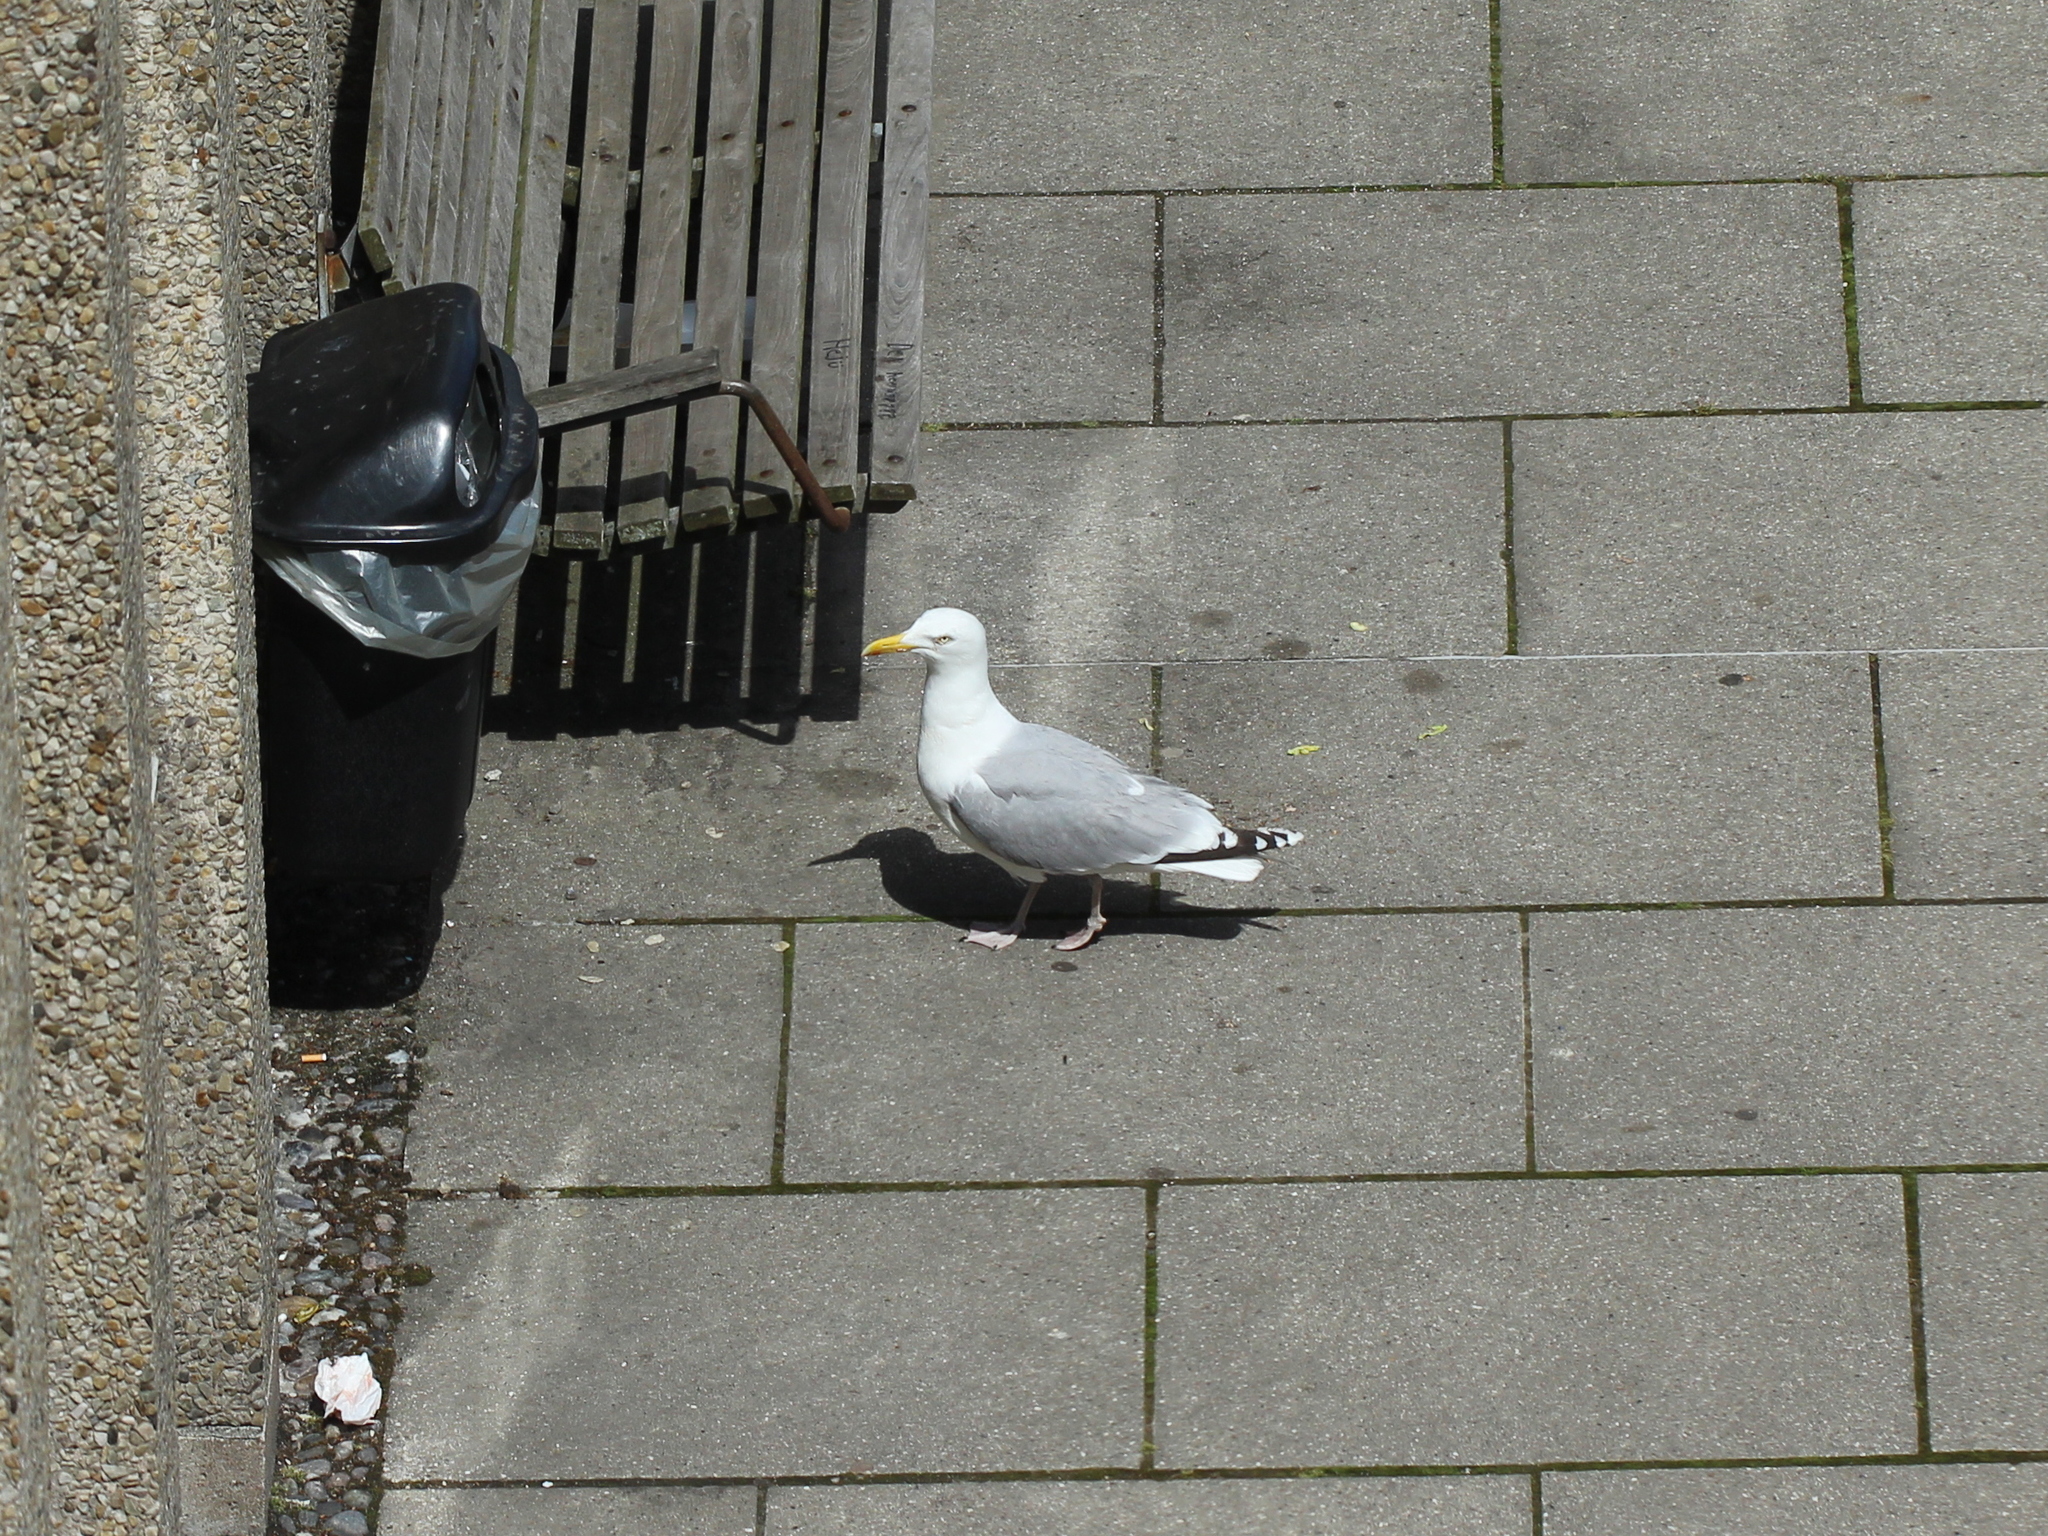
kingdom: Animalia
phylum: Chordata
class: Aves
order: Charadriiformes
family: Laridae
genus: Larus
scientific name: Larus argentatus
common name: Herring gull
